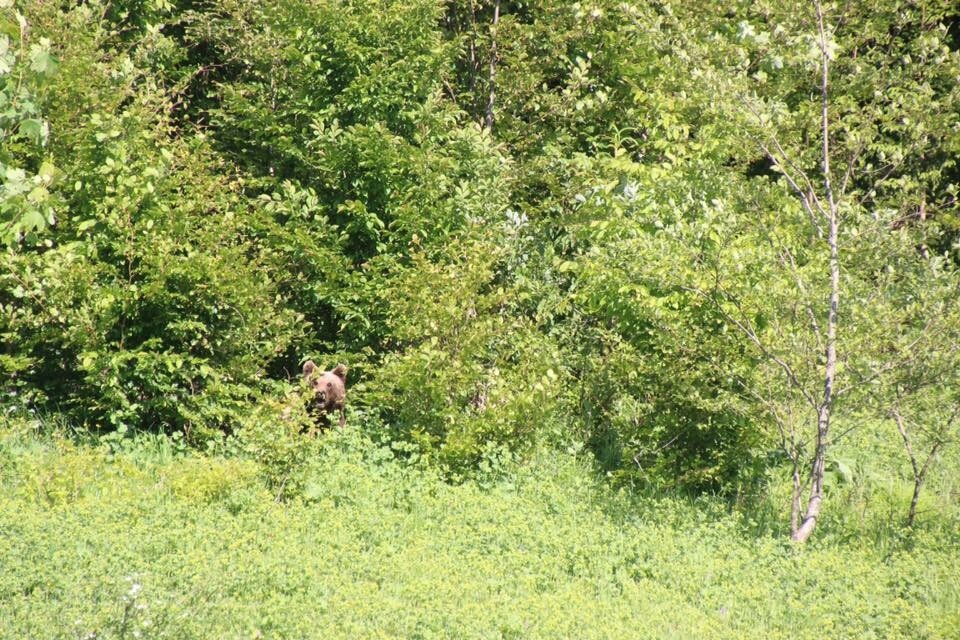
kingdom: Animalia
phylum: Chordata
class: Mammalia
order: Carnivora
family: Ursidae
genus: Ursus
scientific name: Ursus arctos
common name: Brown bear
